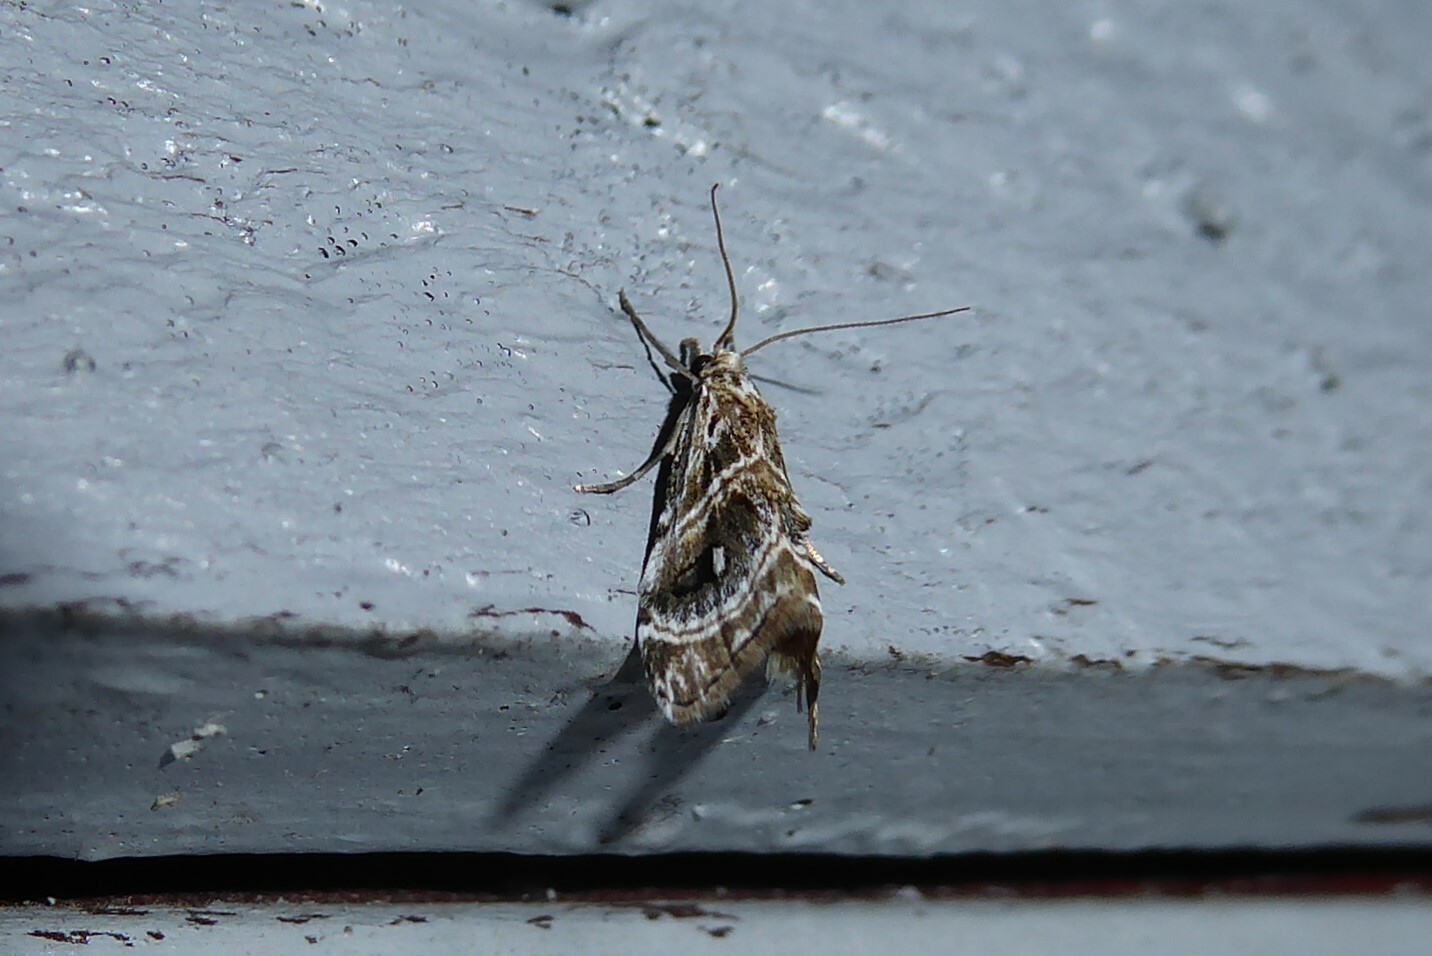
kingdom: Animalia
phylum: Arthropoda
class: Insecta
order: Lepidoptera
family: Crambidae
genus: Gadira
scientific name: Gadira acerella
